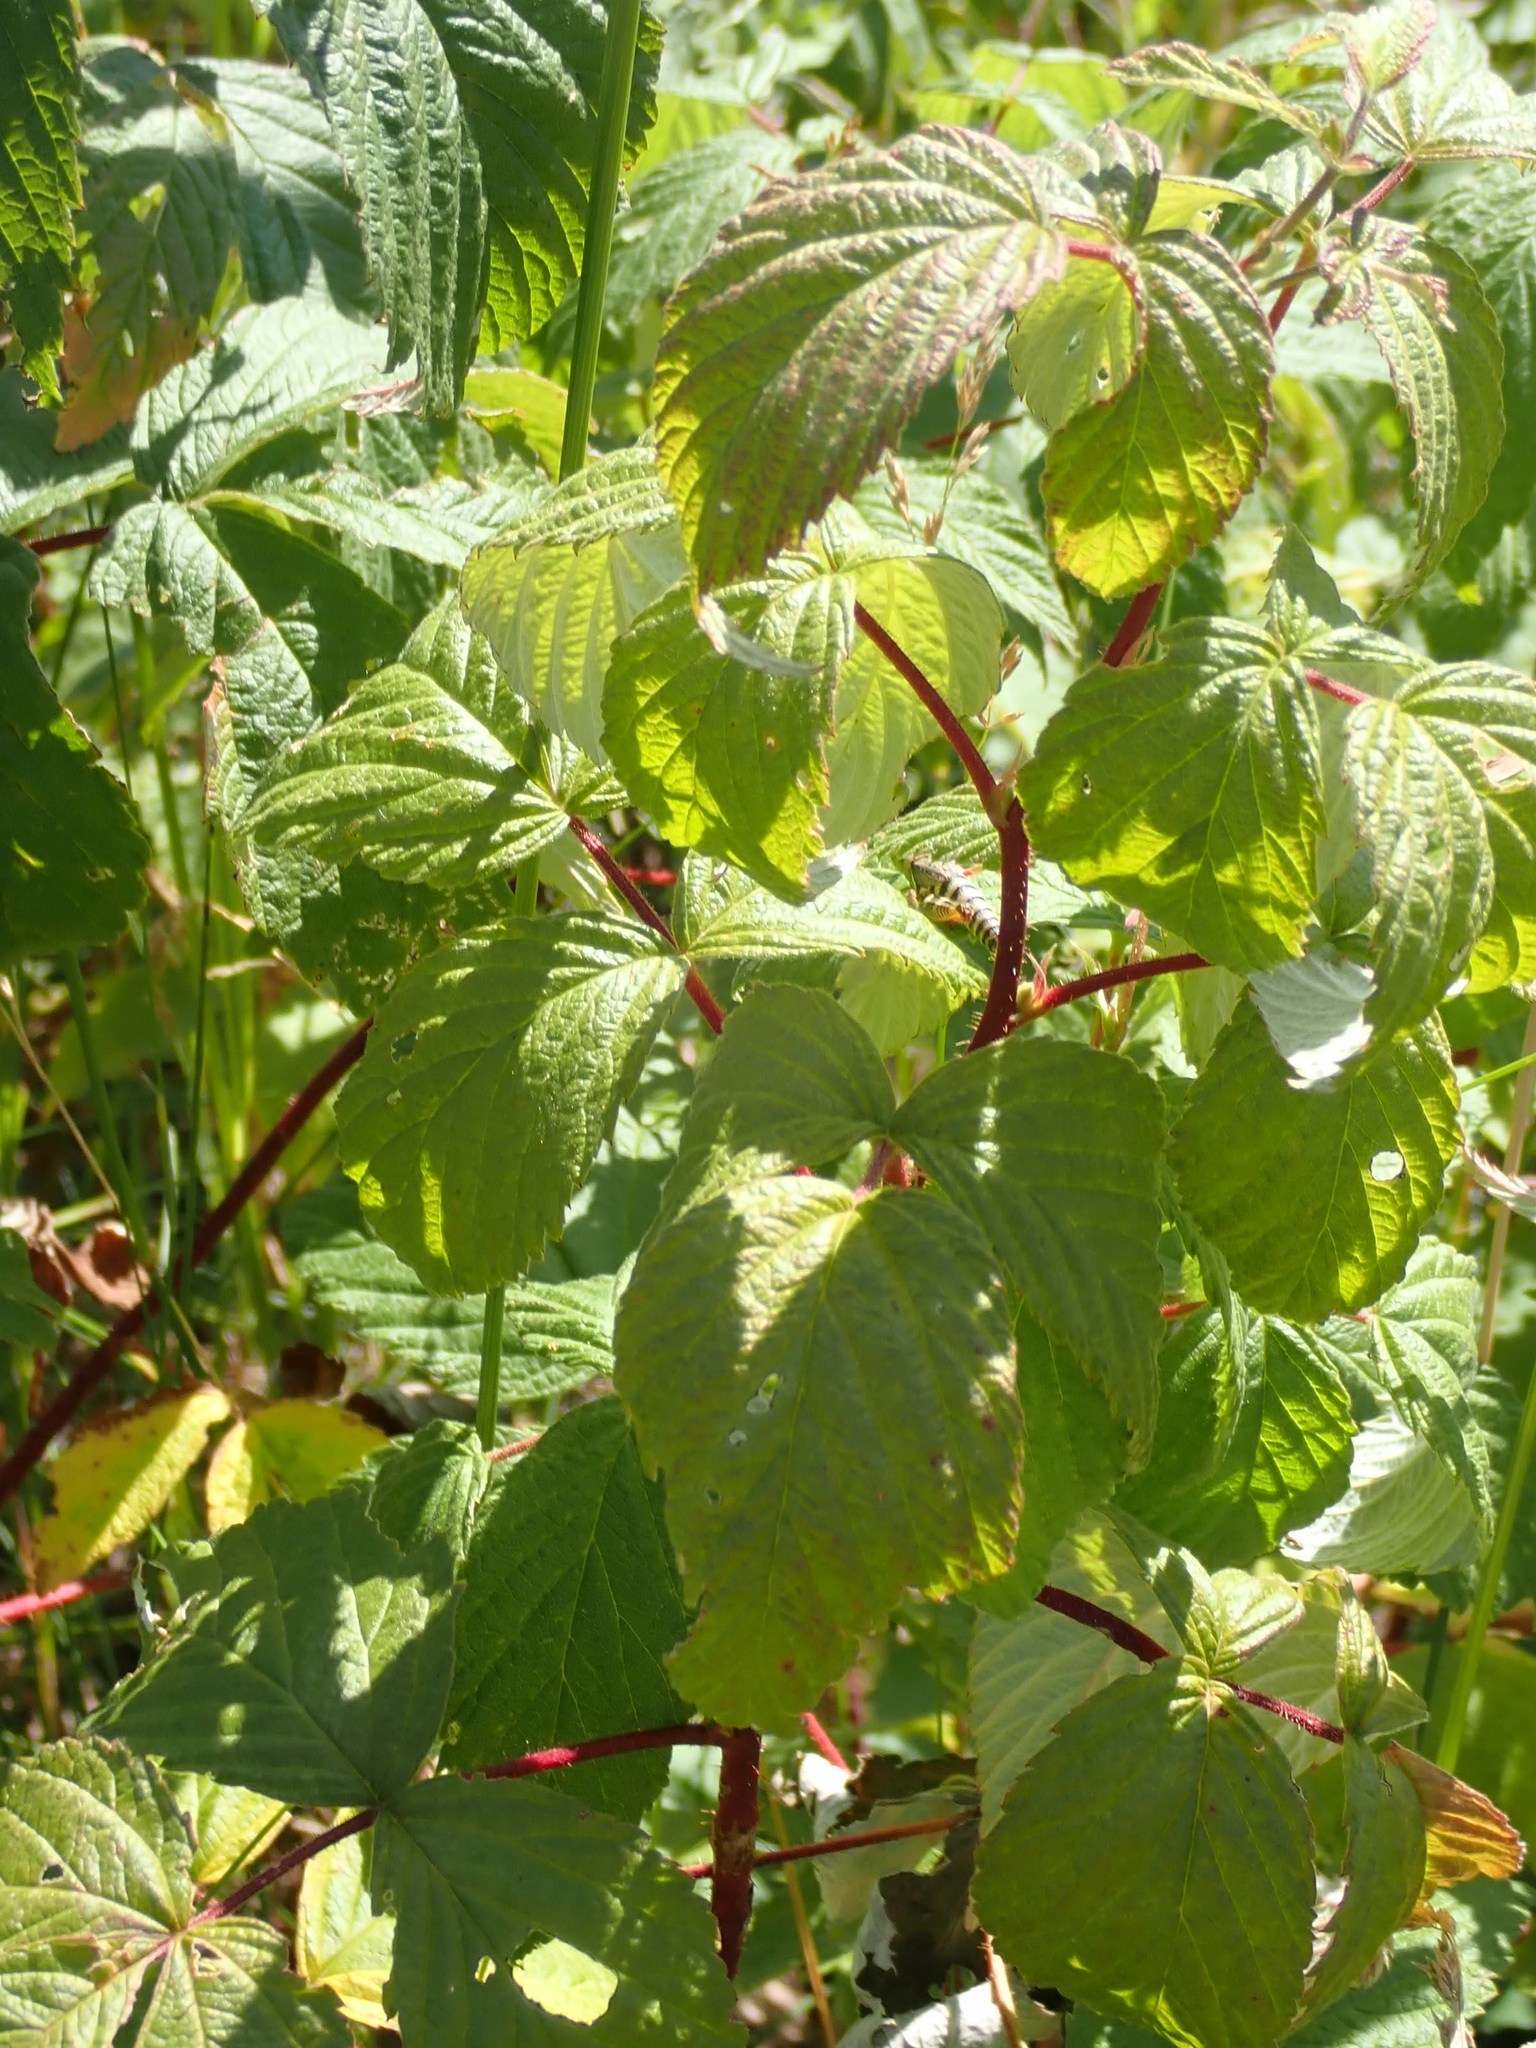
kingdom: Plantae
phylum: Tracheophyta
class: Magnoliopsida
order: Rosales
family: Rosaceae
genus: Rubus
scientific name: Rubus idaeus
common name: Raspberry
